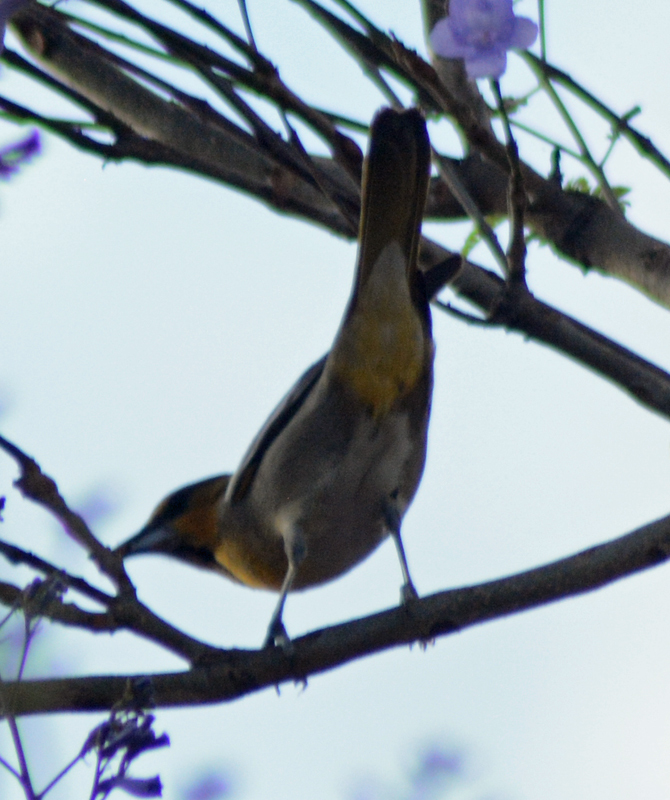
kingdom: Animalia
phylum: Chordata
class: Aves
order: Passeriformes
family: Icteridae
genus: Icterus
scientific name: Icterus abeillei
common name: Black-backed oriole
